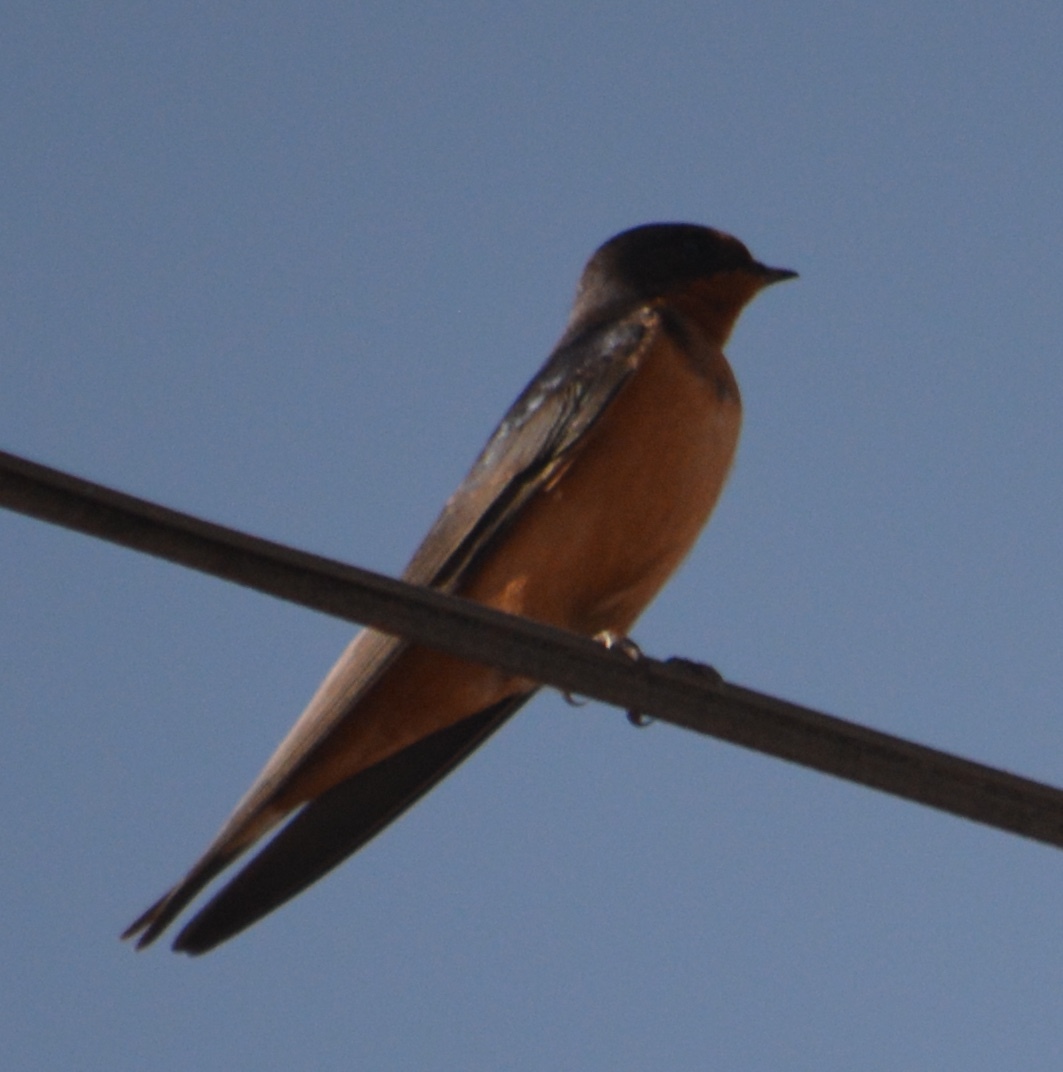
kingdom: Animalia
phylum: Chordata
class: Aves
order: Passeriformes
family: Hirundinidae
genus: Hirundo
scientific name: Hirundo rustica
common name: Barn swallow
